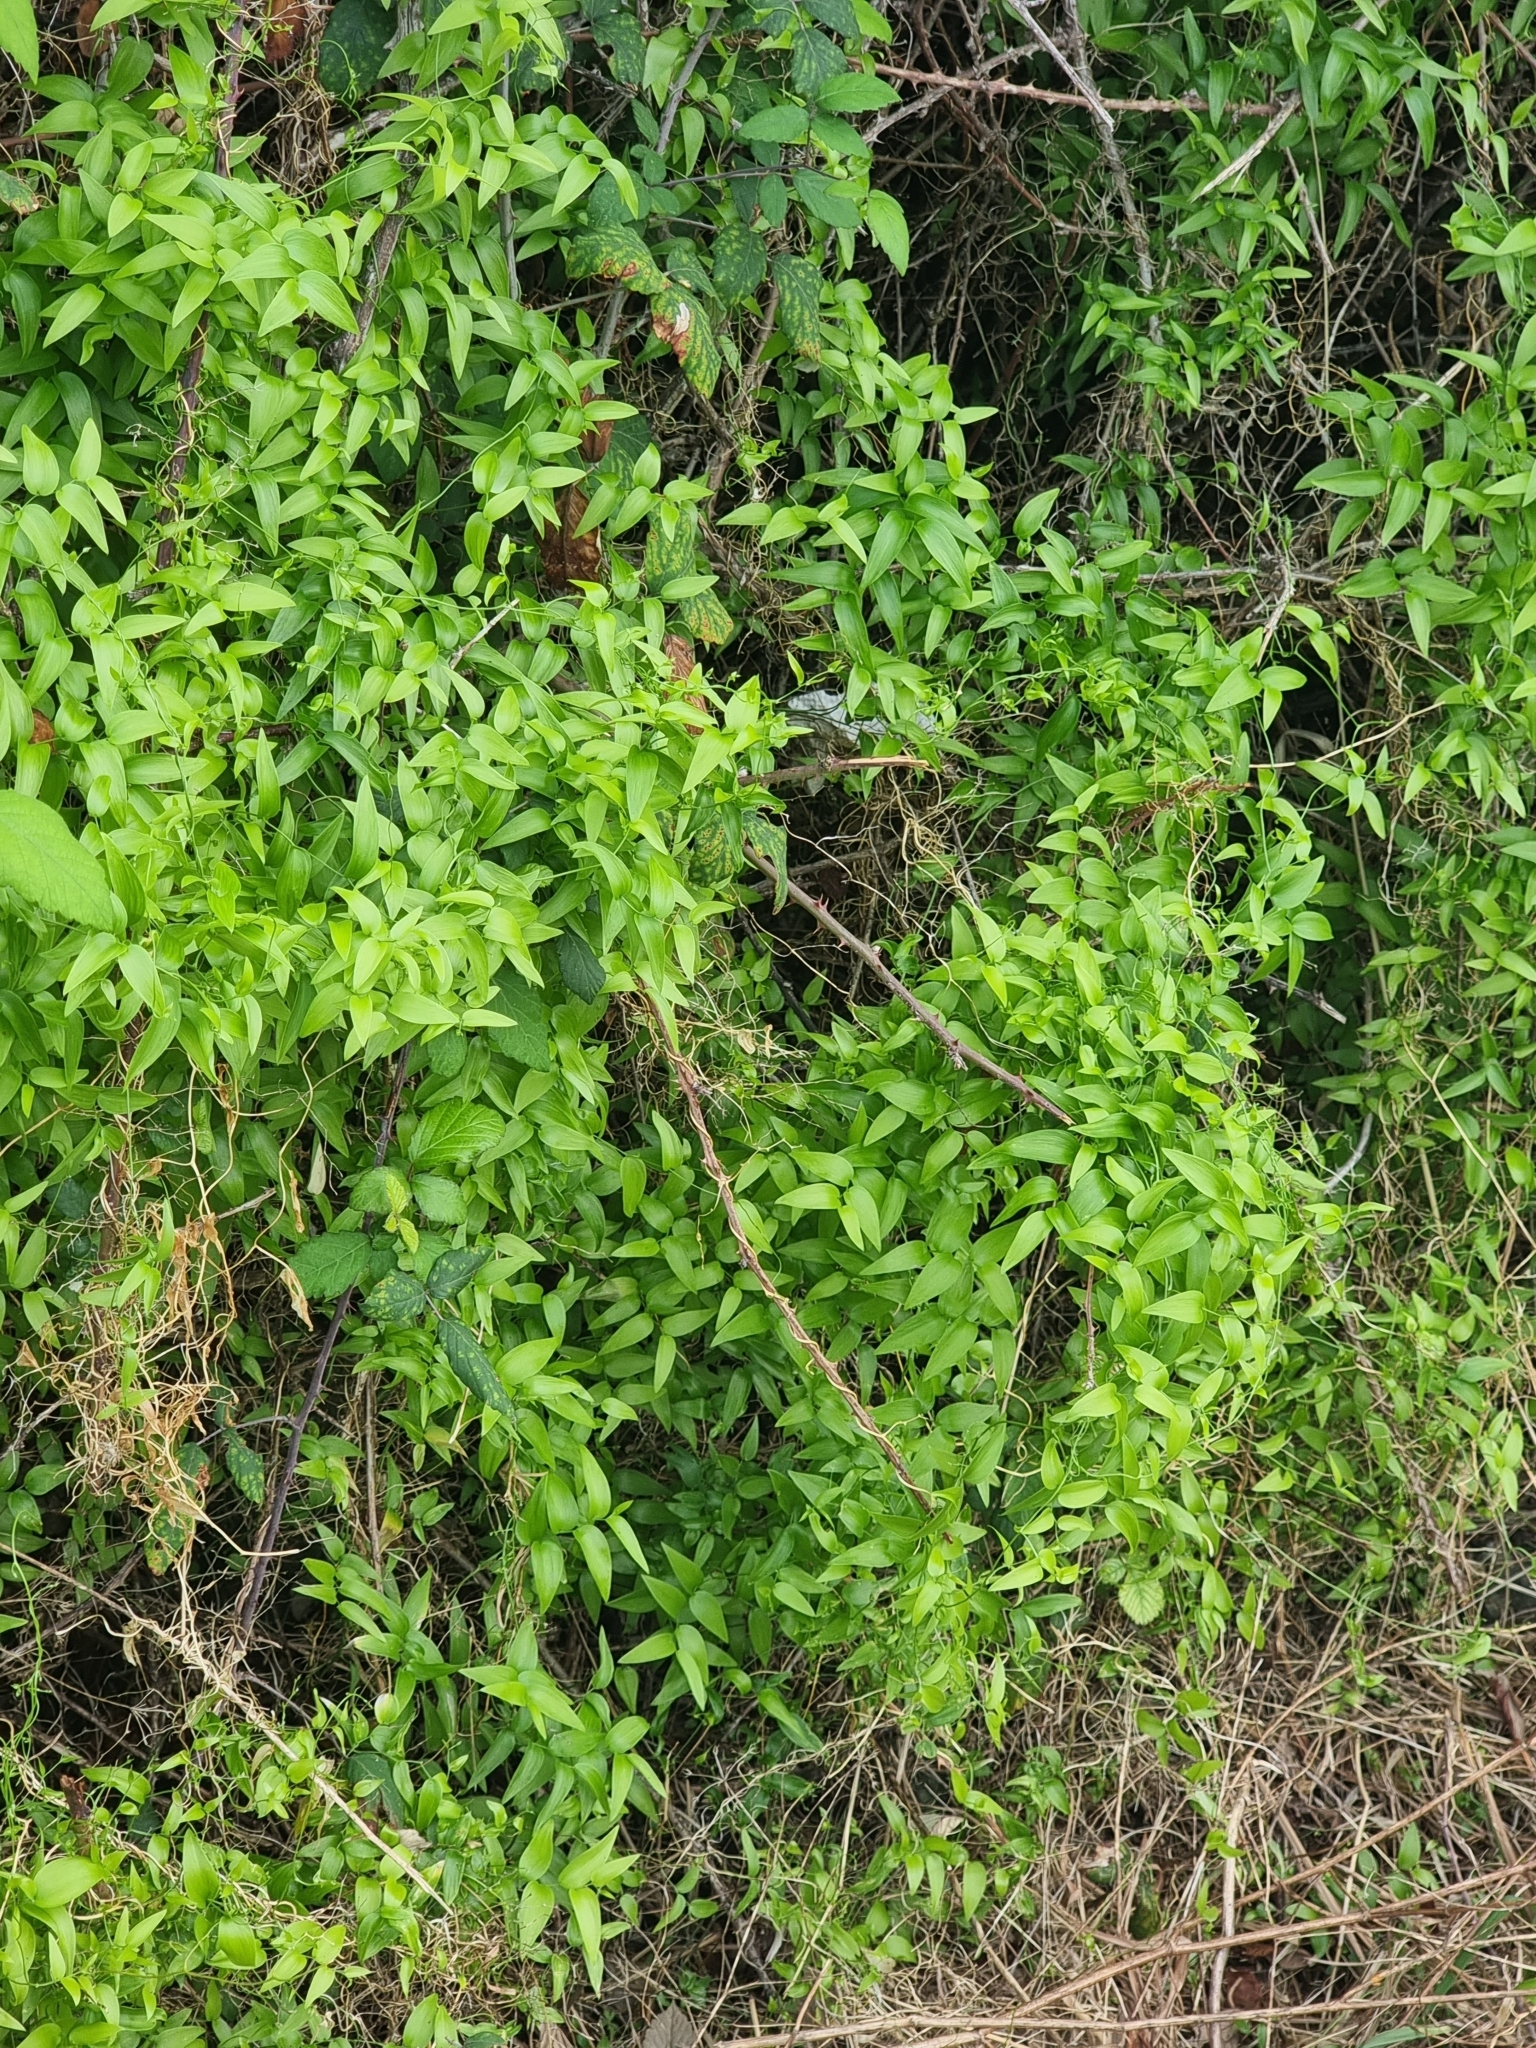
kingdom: Plantae
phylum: Tracheophyta
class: Liliopsida
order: Asparagales
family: Asparagaceae
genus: Asparagus
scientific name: Asparagus asparagoides
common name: African asparagus fern
